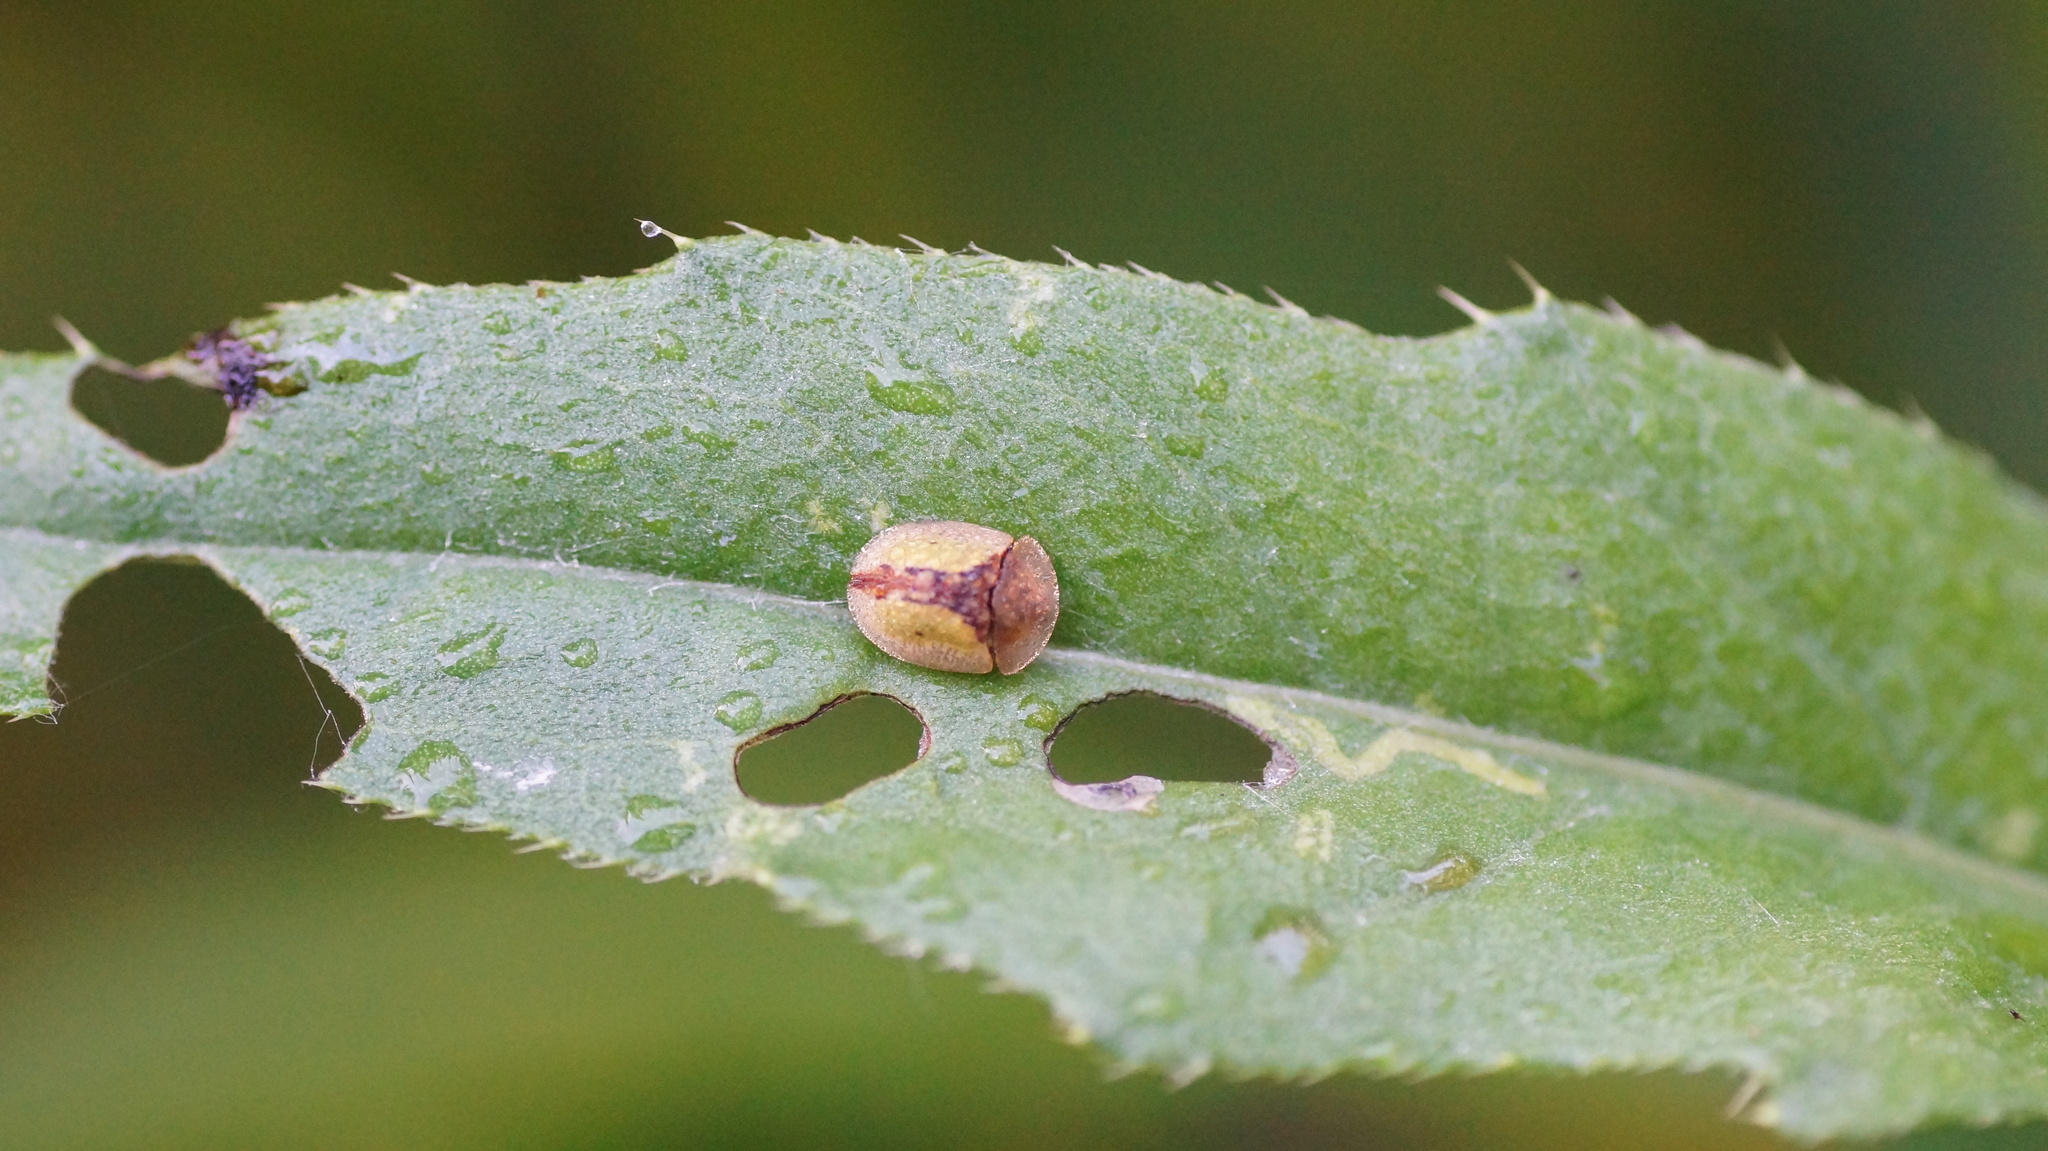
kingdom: Animalia
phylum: Arthropoda
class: Insecta
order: Coleoptera
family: Chrysomelidae
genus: Cassida
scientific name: Cassida vibex
